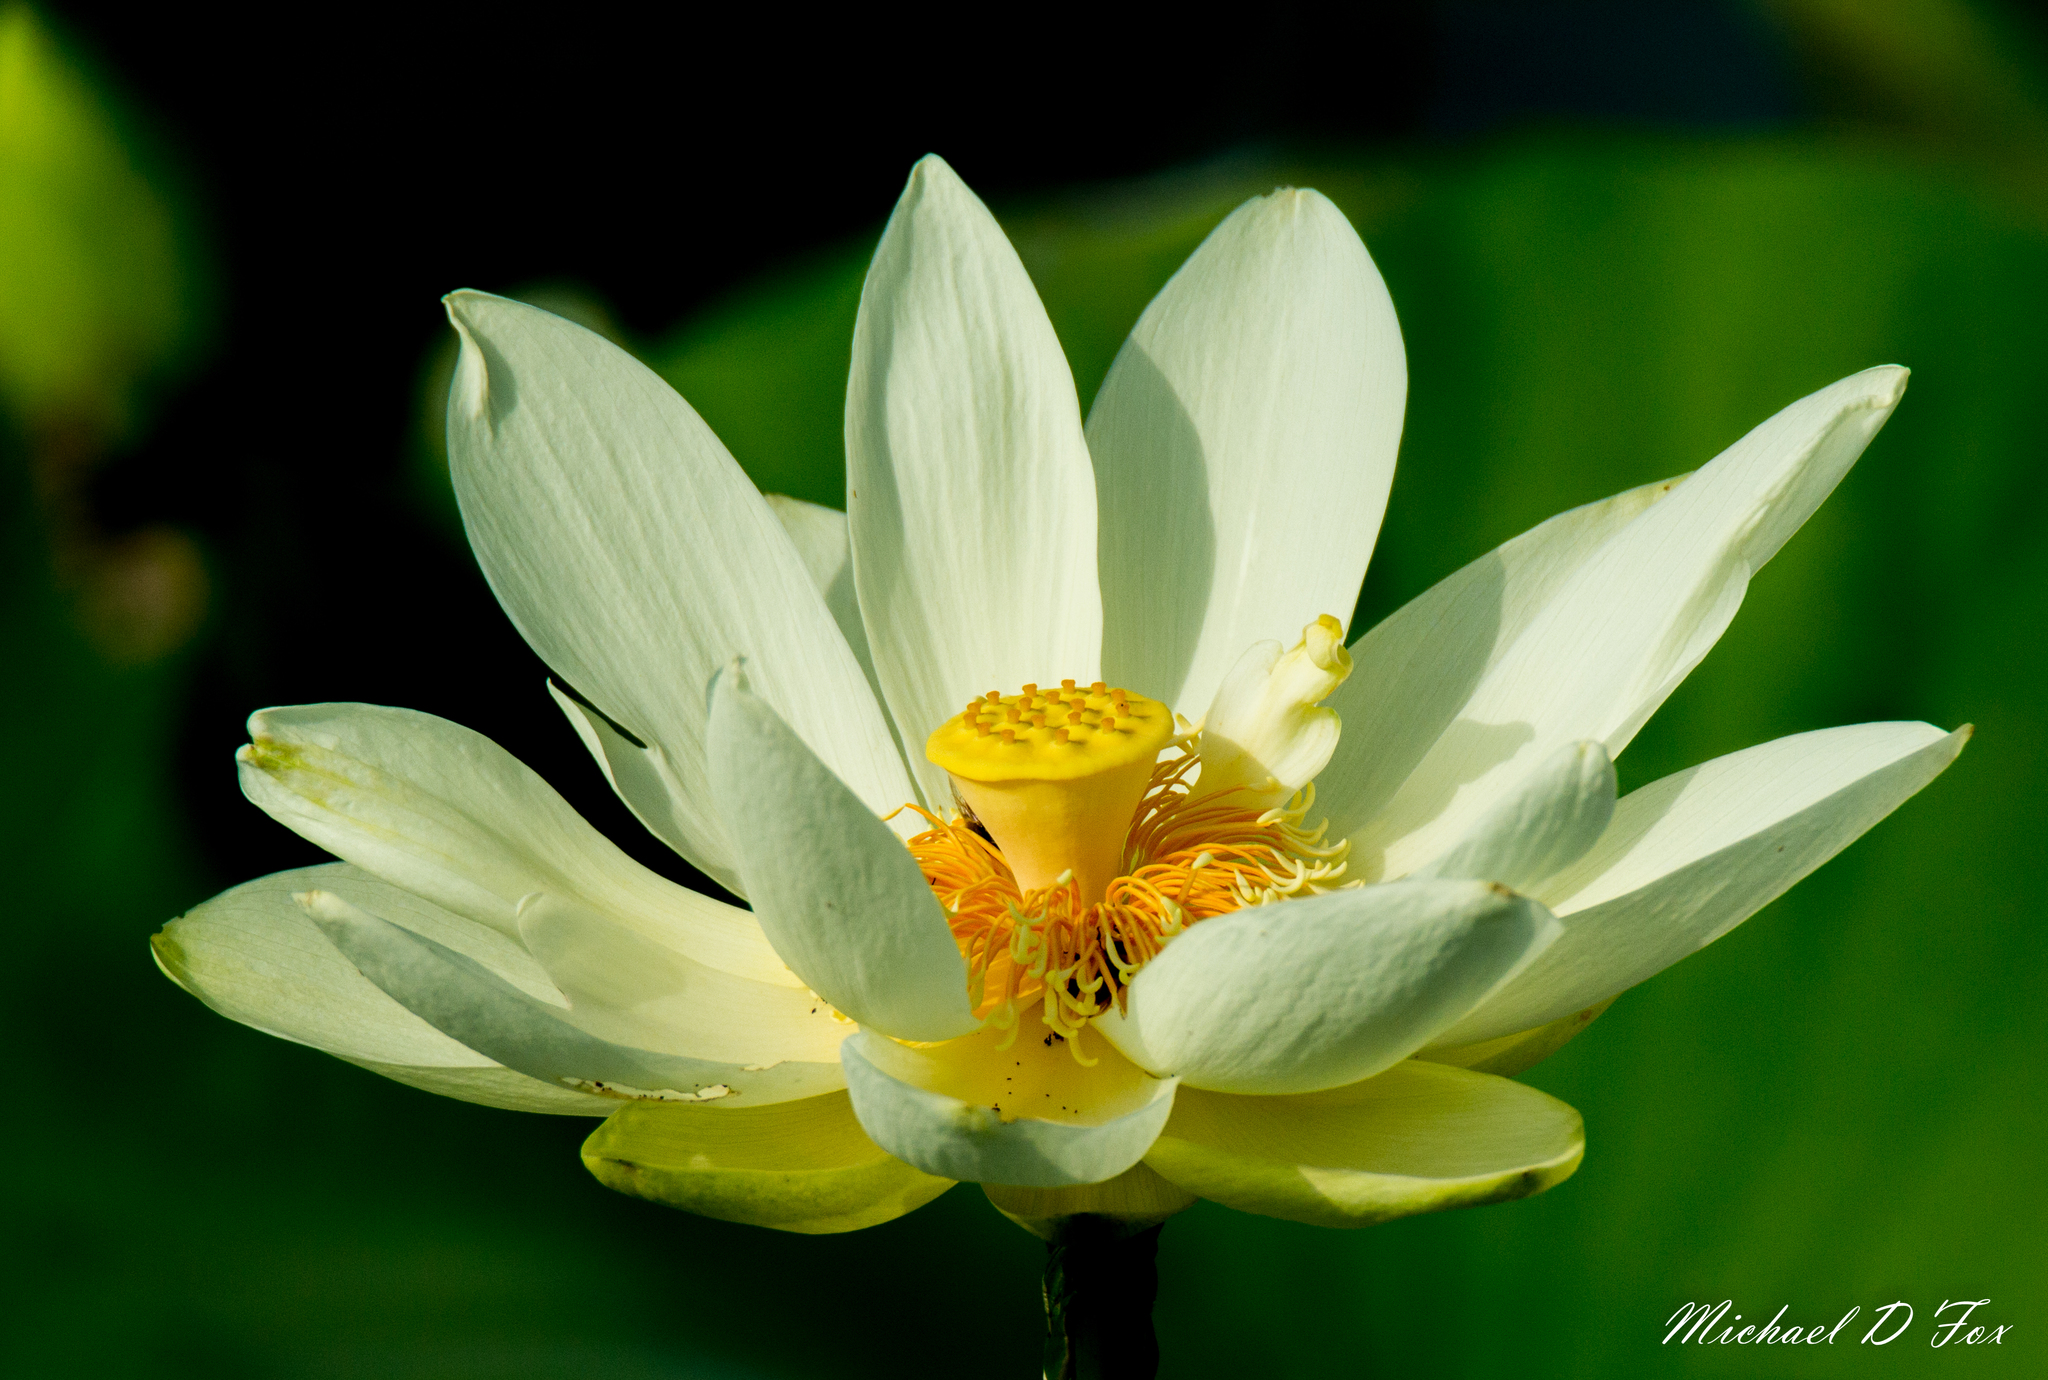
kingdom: Plantae
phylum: Tracheophyta
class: Magnoliopsida
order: Proteales
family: Nelumbonaceae
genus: Nelumbo
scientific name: Nelumbo lutea
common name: American lotus
